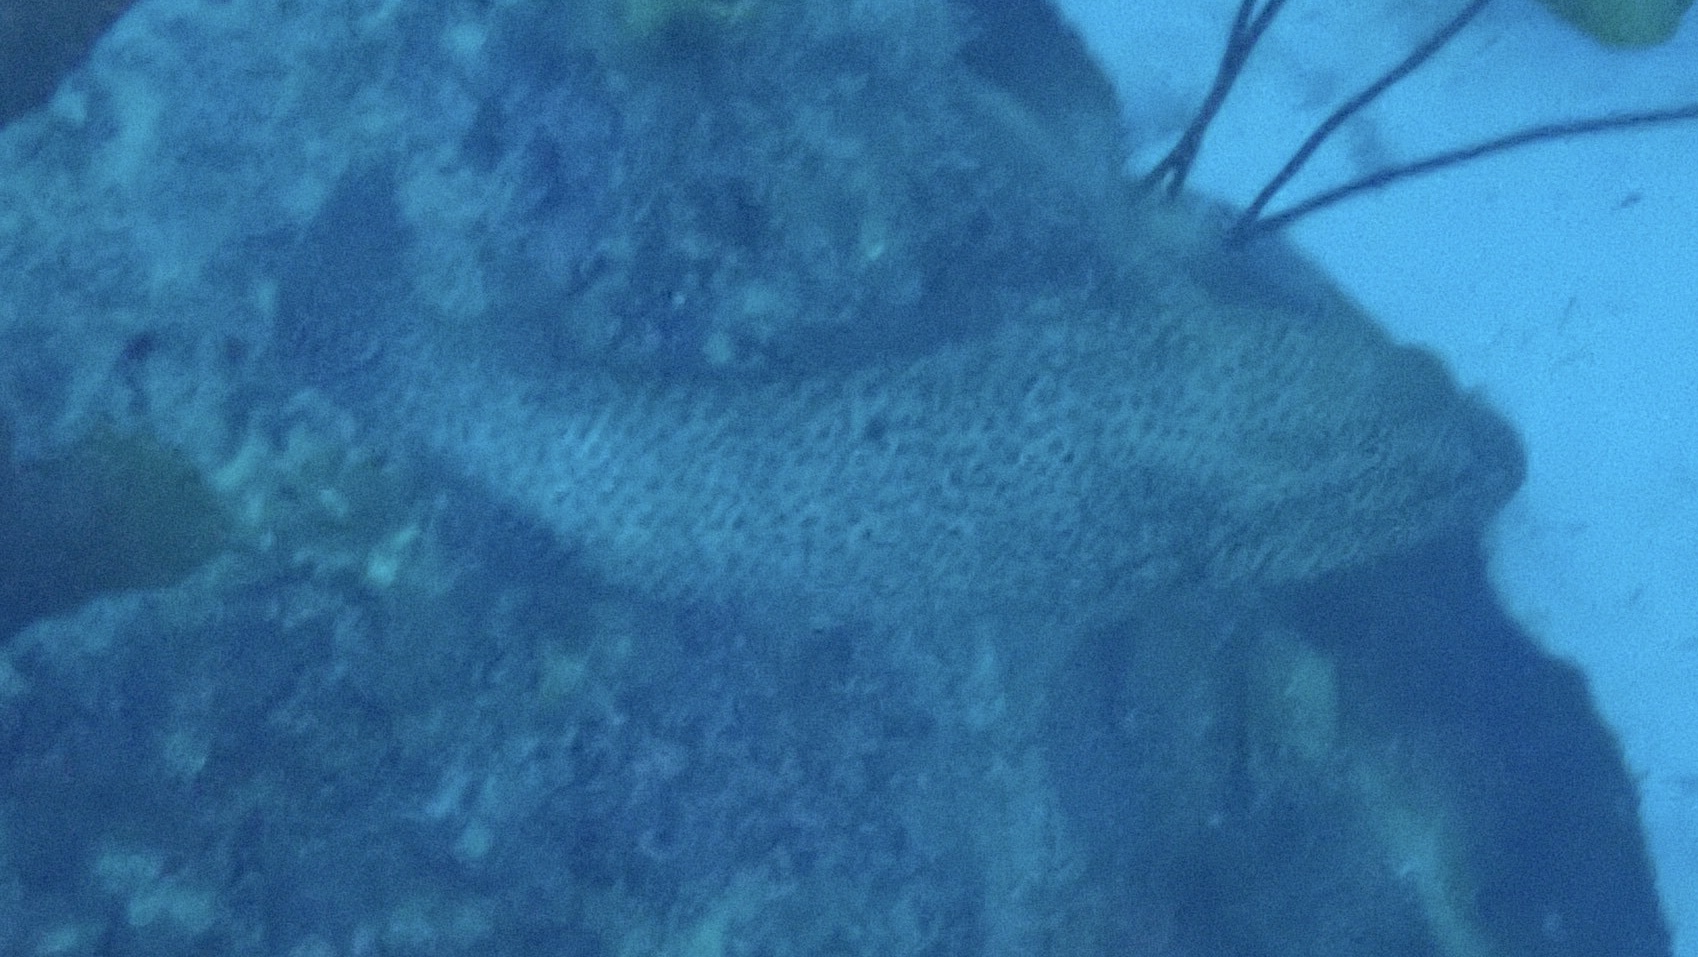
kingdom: Animalia
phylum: Chordata
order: Perciformes
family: Serranidae
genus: Cephalopholis
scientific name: Cephalopholis cruentata
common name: Graysby
